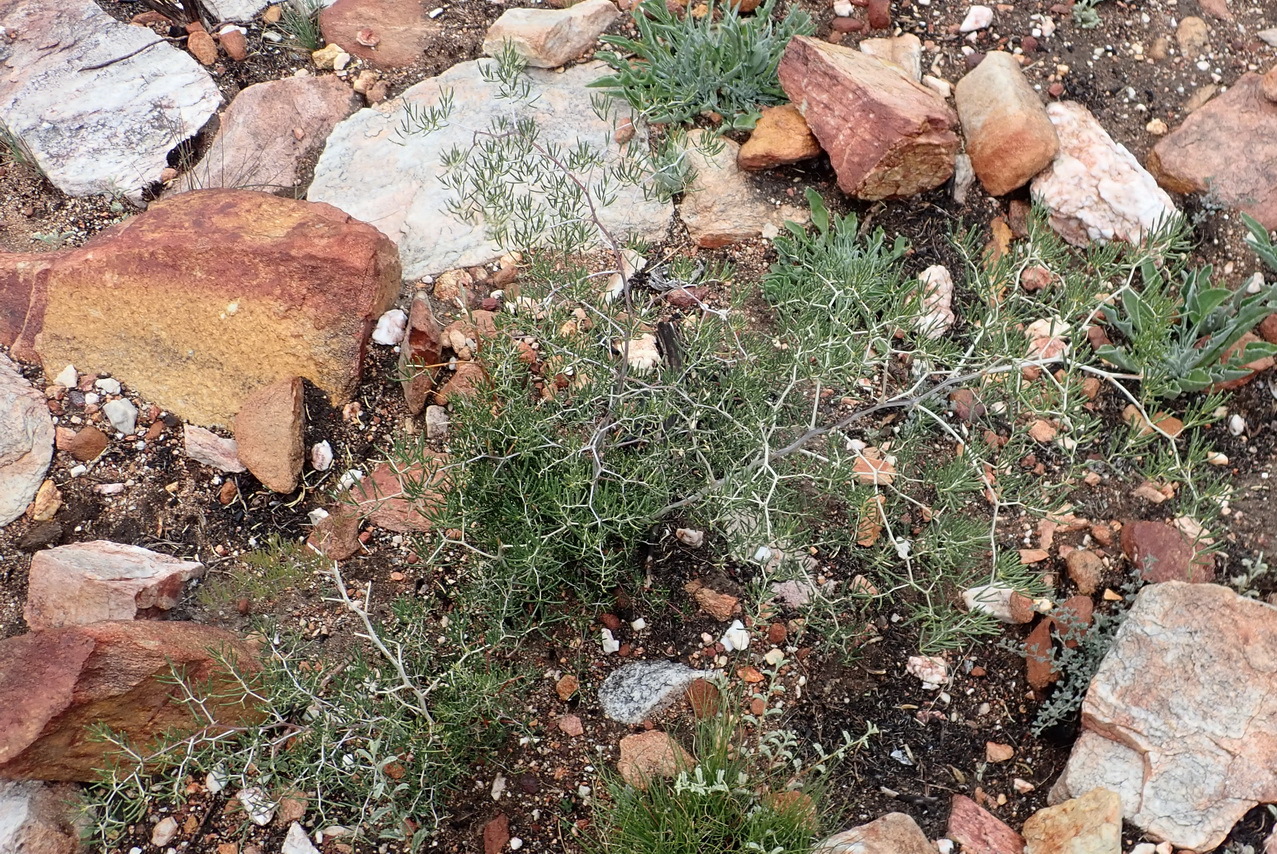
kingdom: Plantae
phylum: Tracheophyta
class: Liliopsida
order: Asparagales
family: Asparagaceae
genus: Asparagus
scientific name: Asparagus lignosus
